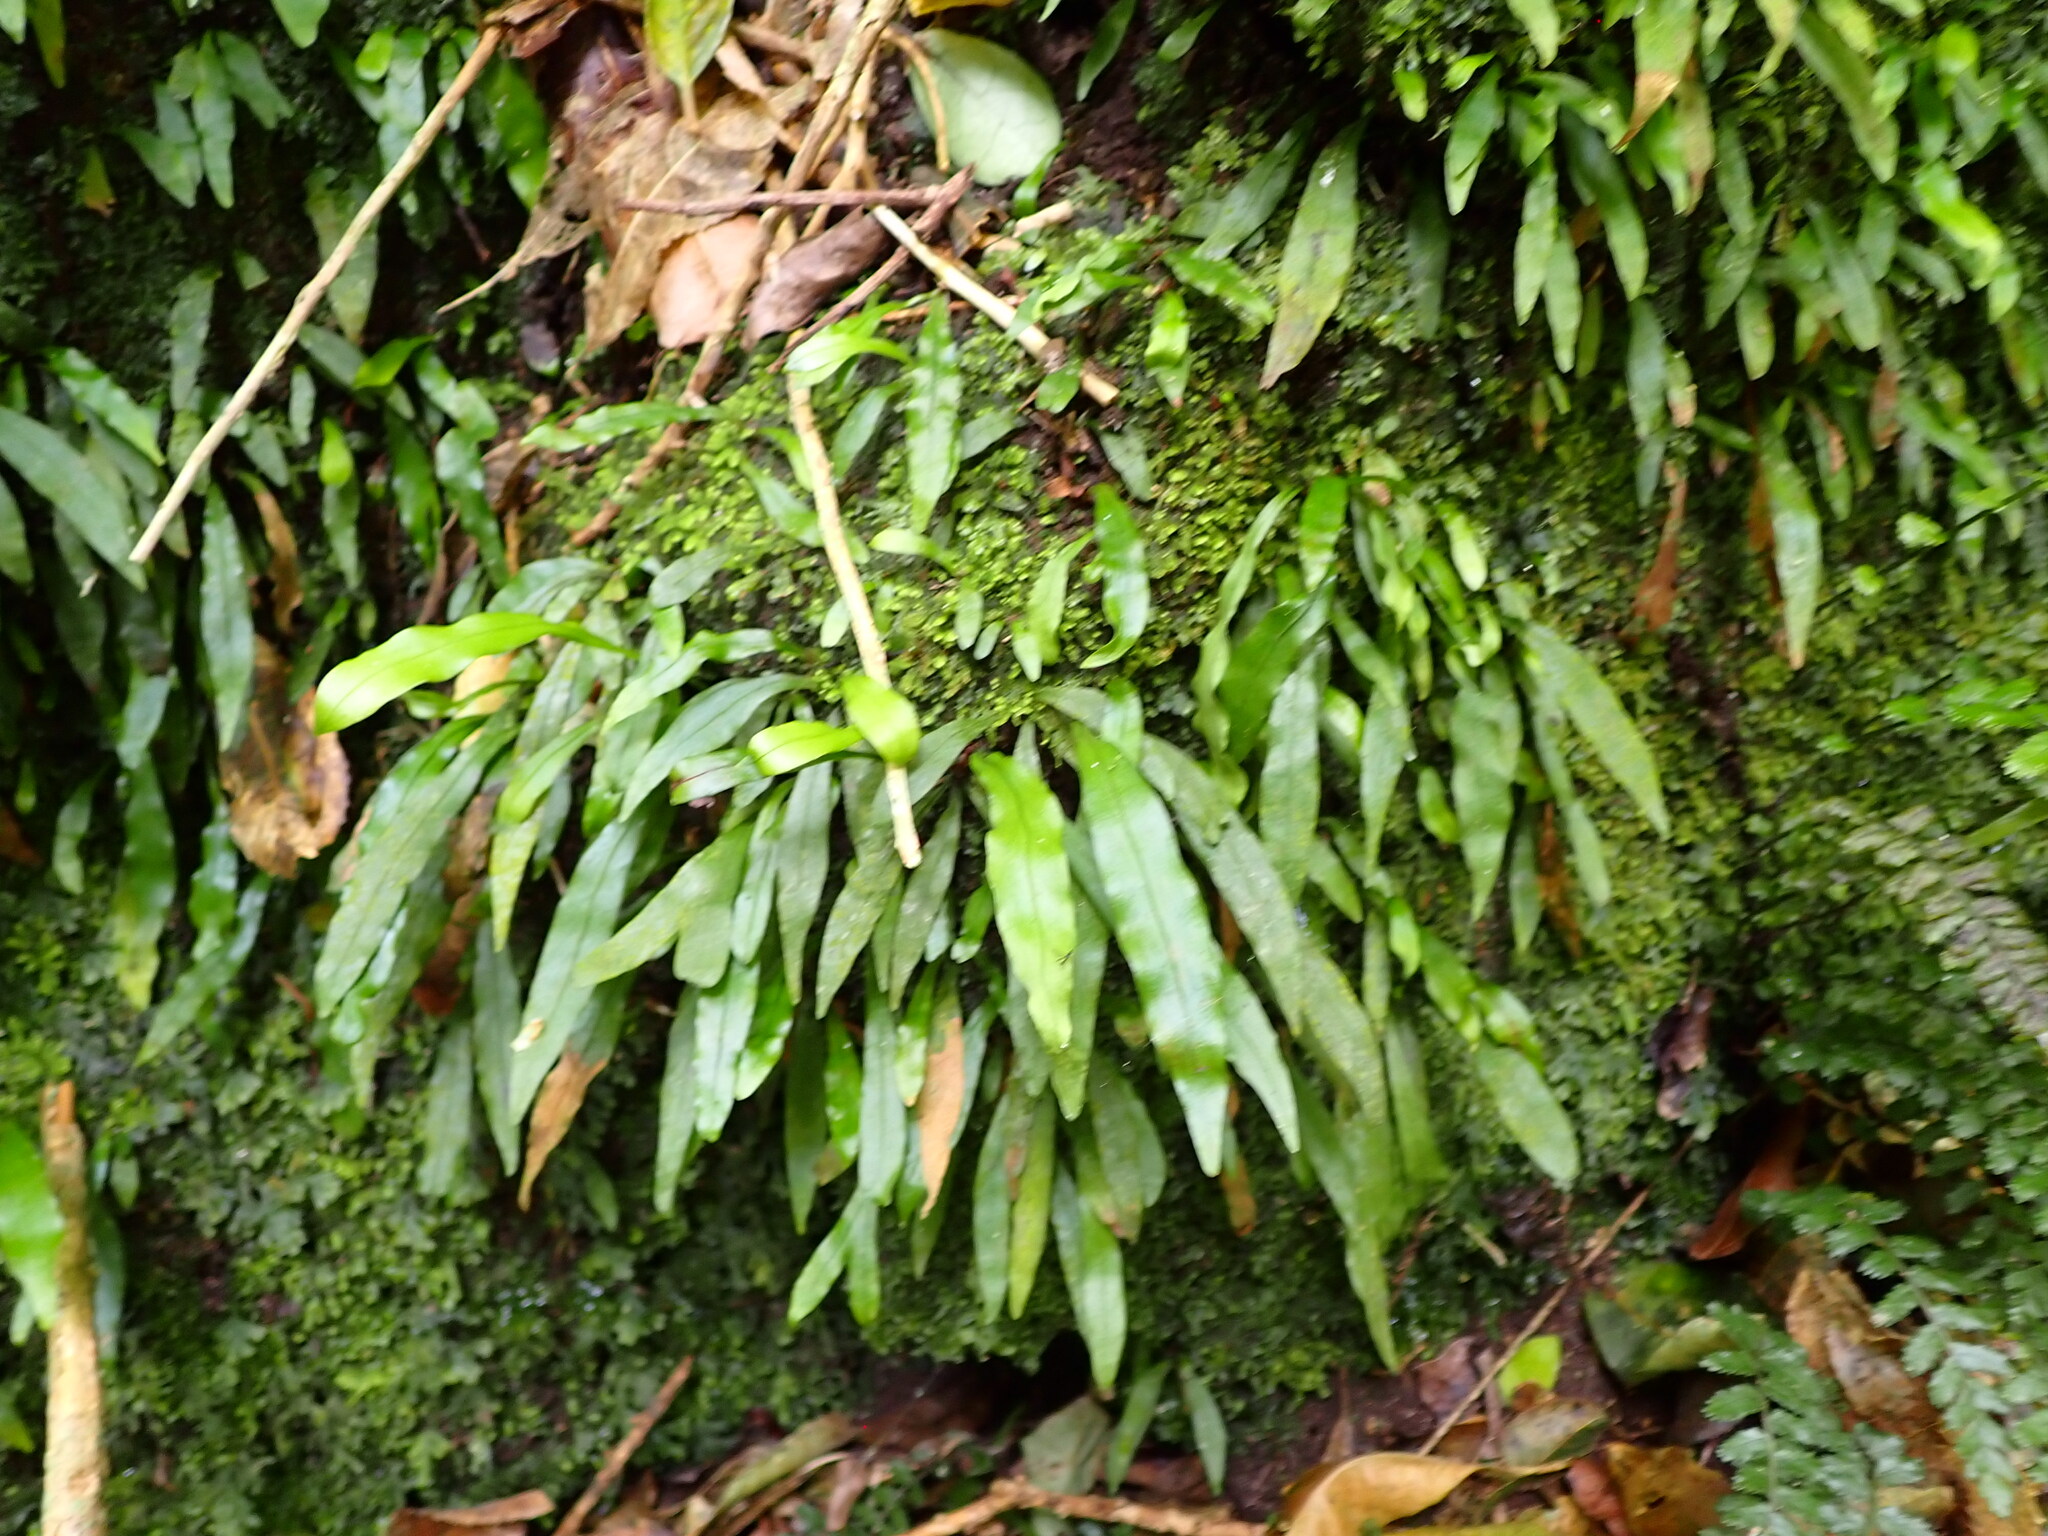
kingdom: Plantae
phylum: Tracheophyta
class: Polypodiopsida
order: Polypodiales
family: Polypodiaceae
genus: Loxogramme
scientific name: Loxogramme dictyopteris
